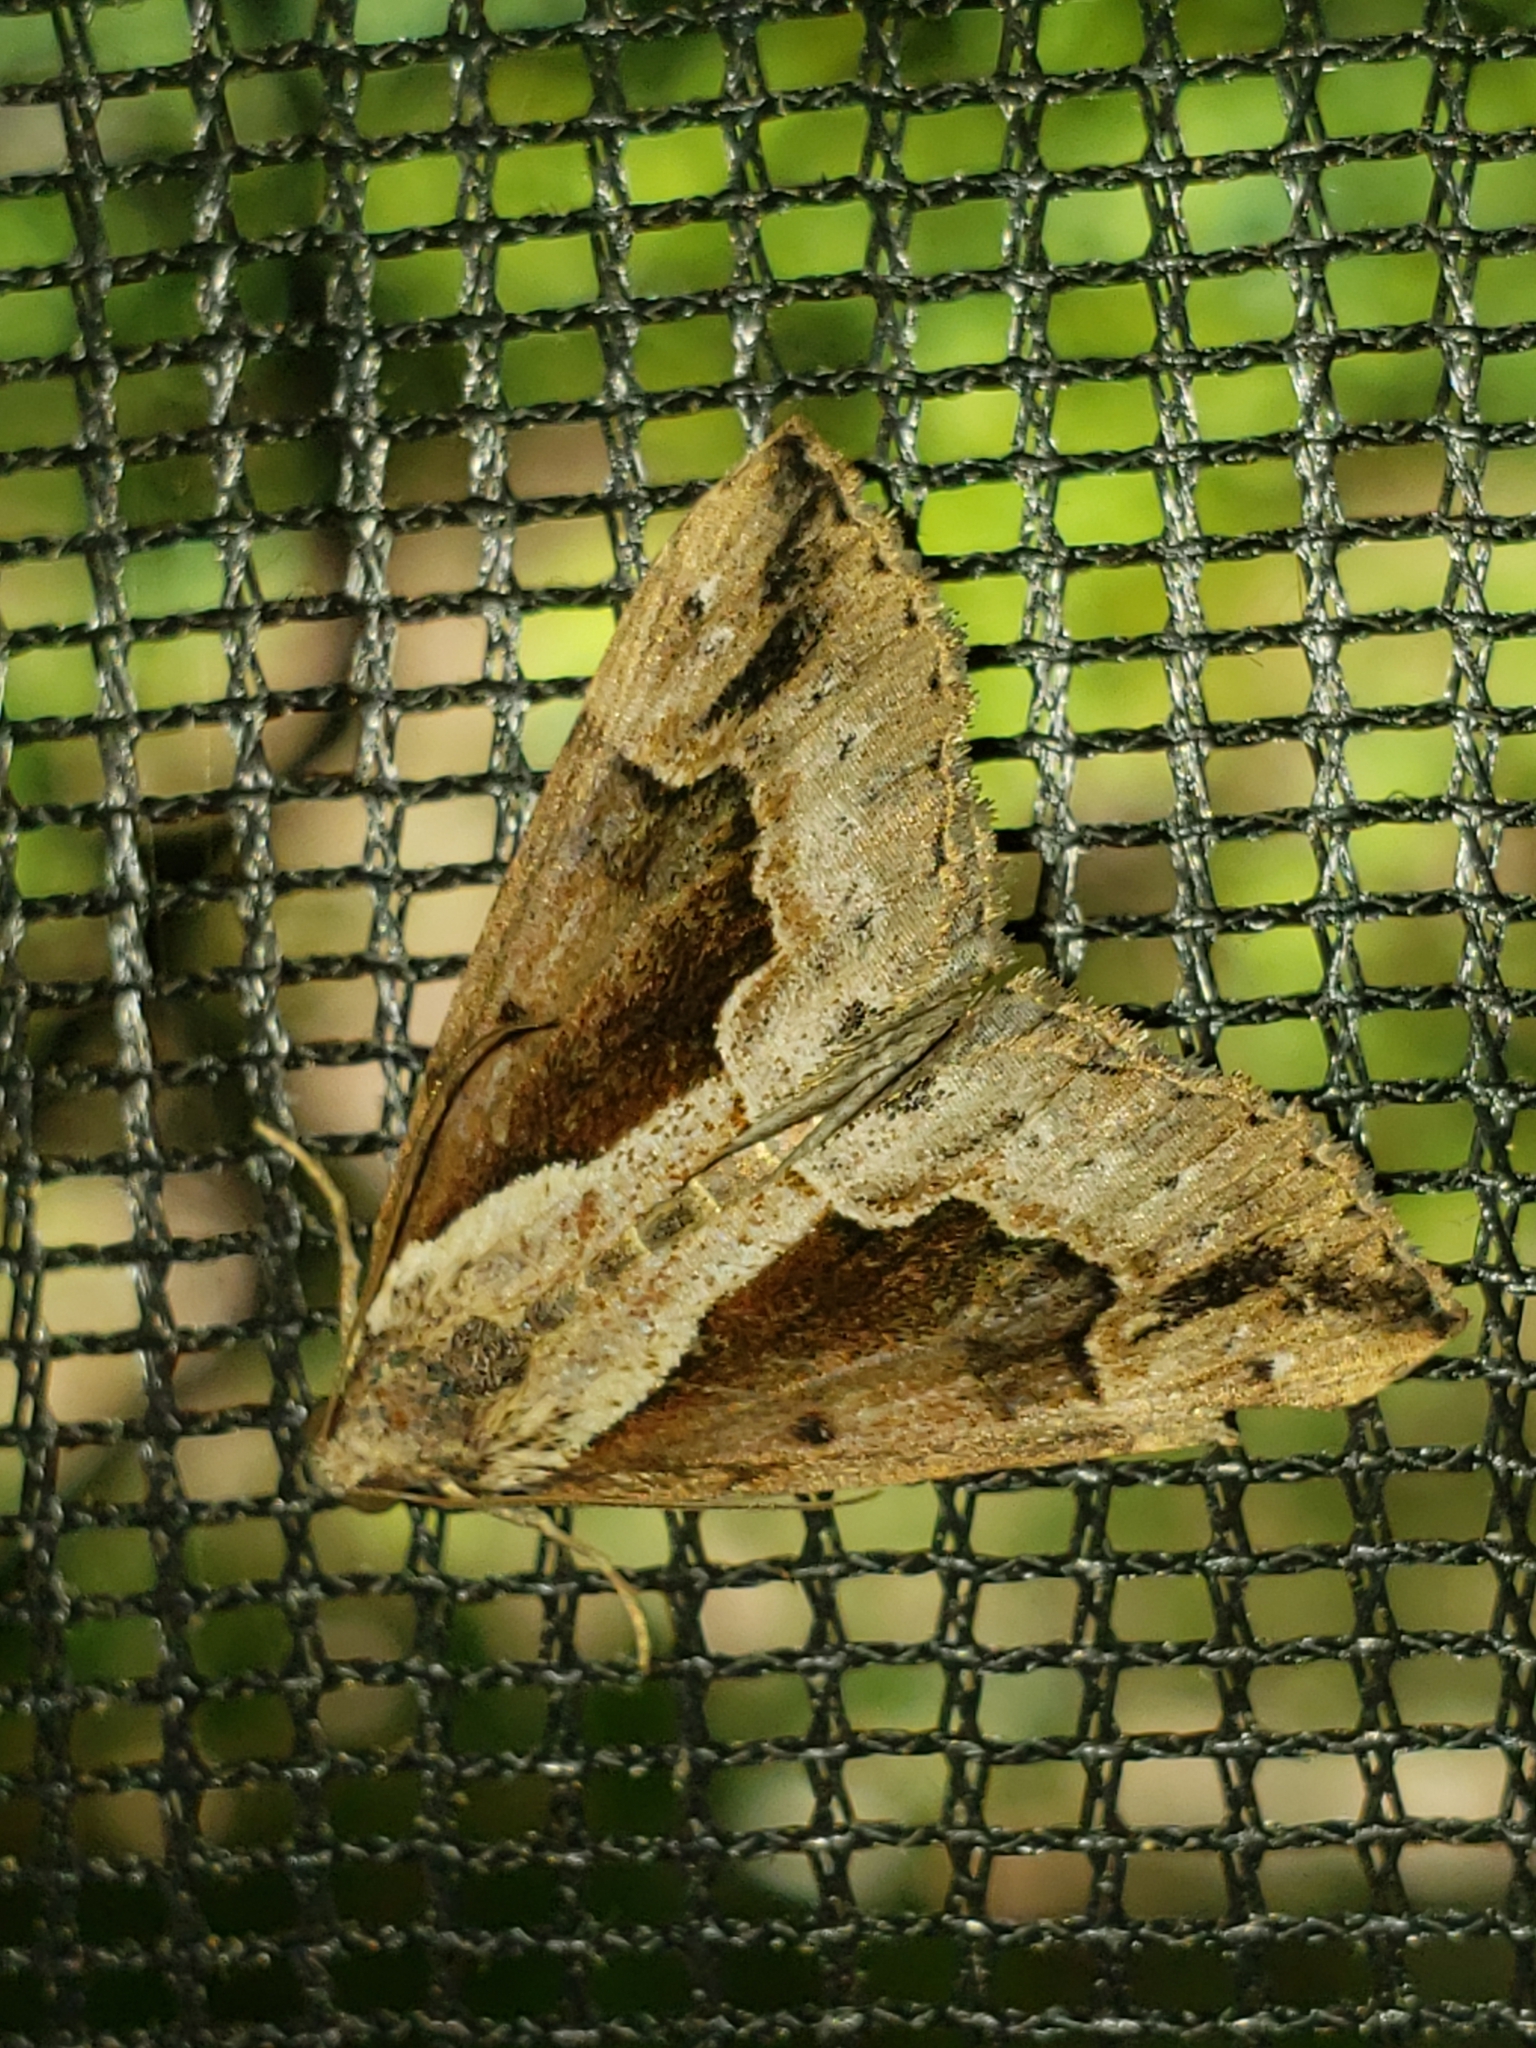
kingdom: Animalia
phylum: Arthropoda
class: Insecta
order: Lepidoptera
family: Erebidae
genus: Hypena
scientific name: Hypena baltimoralis
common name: Baltimore snout
